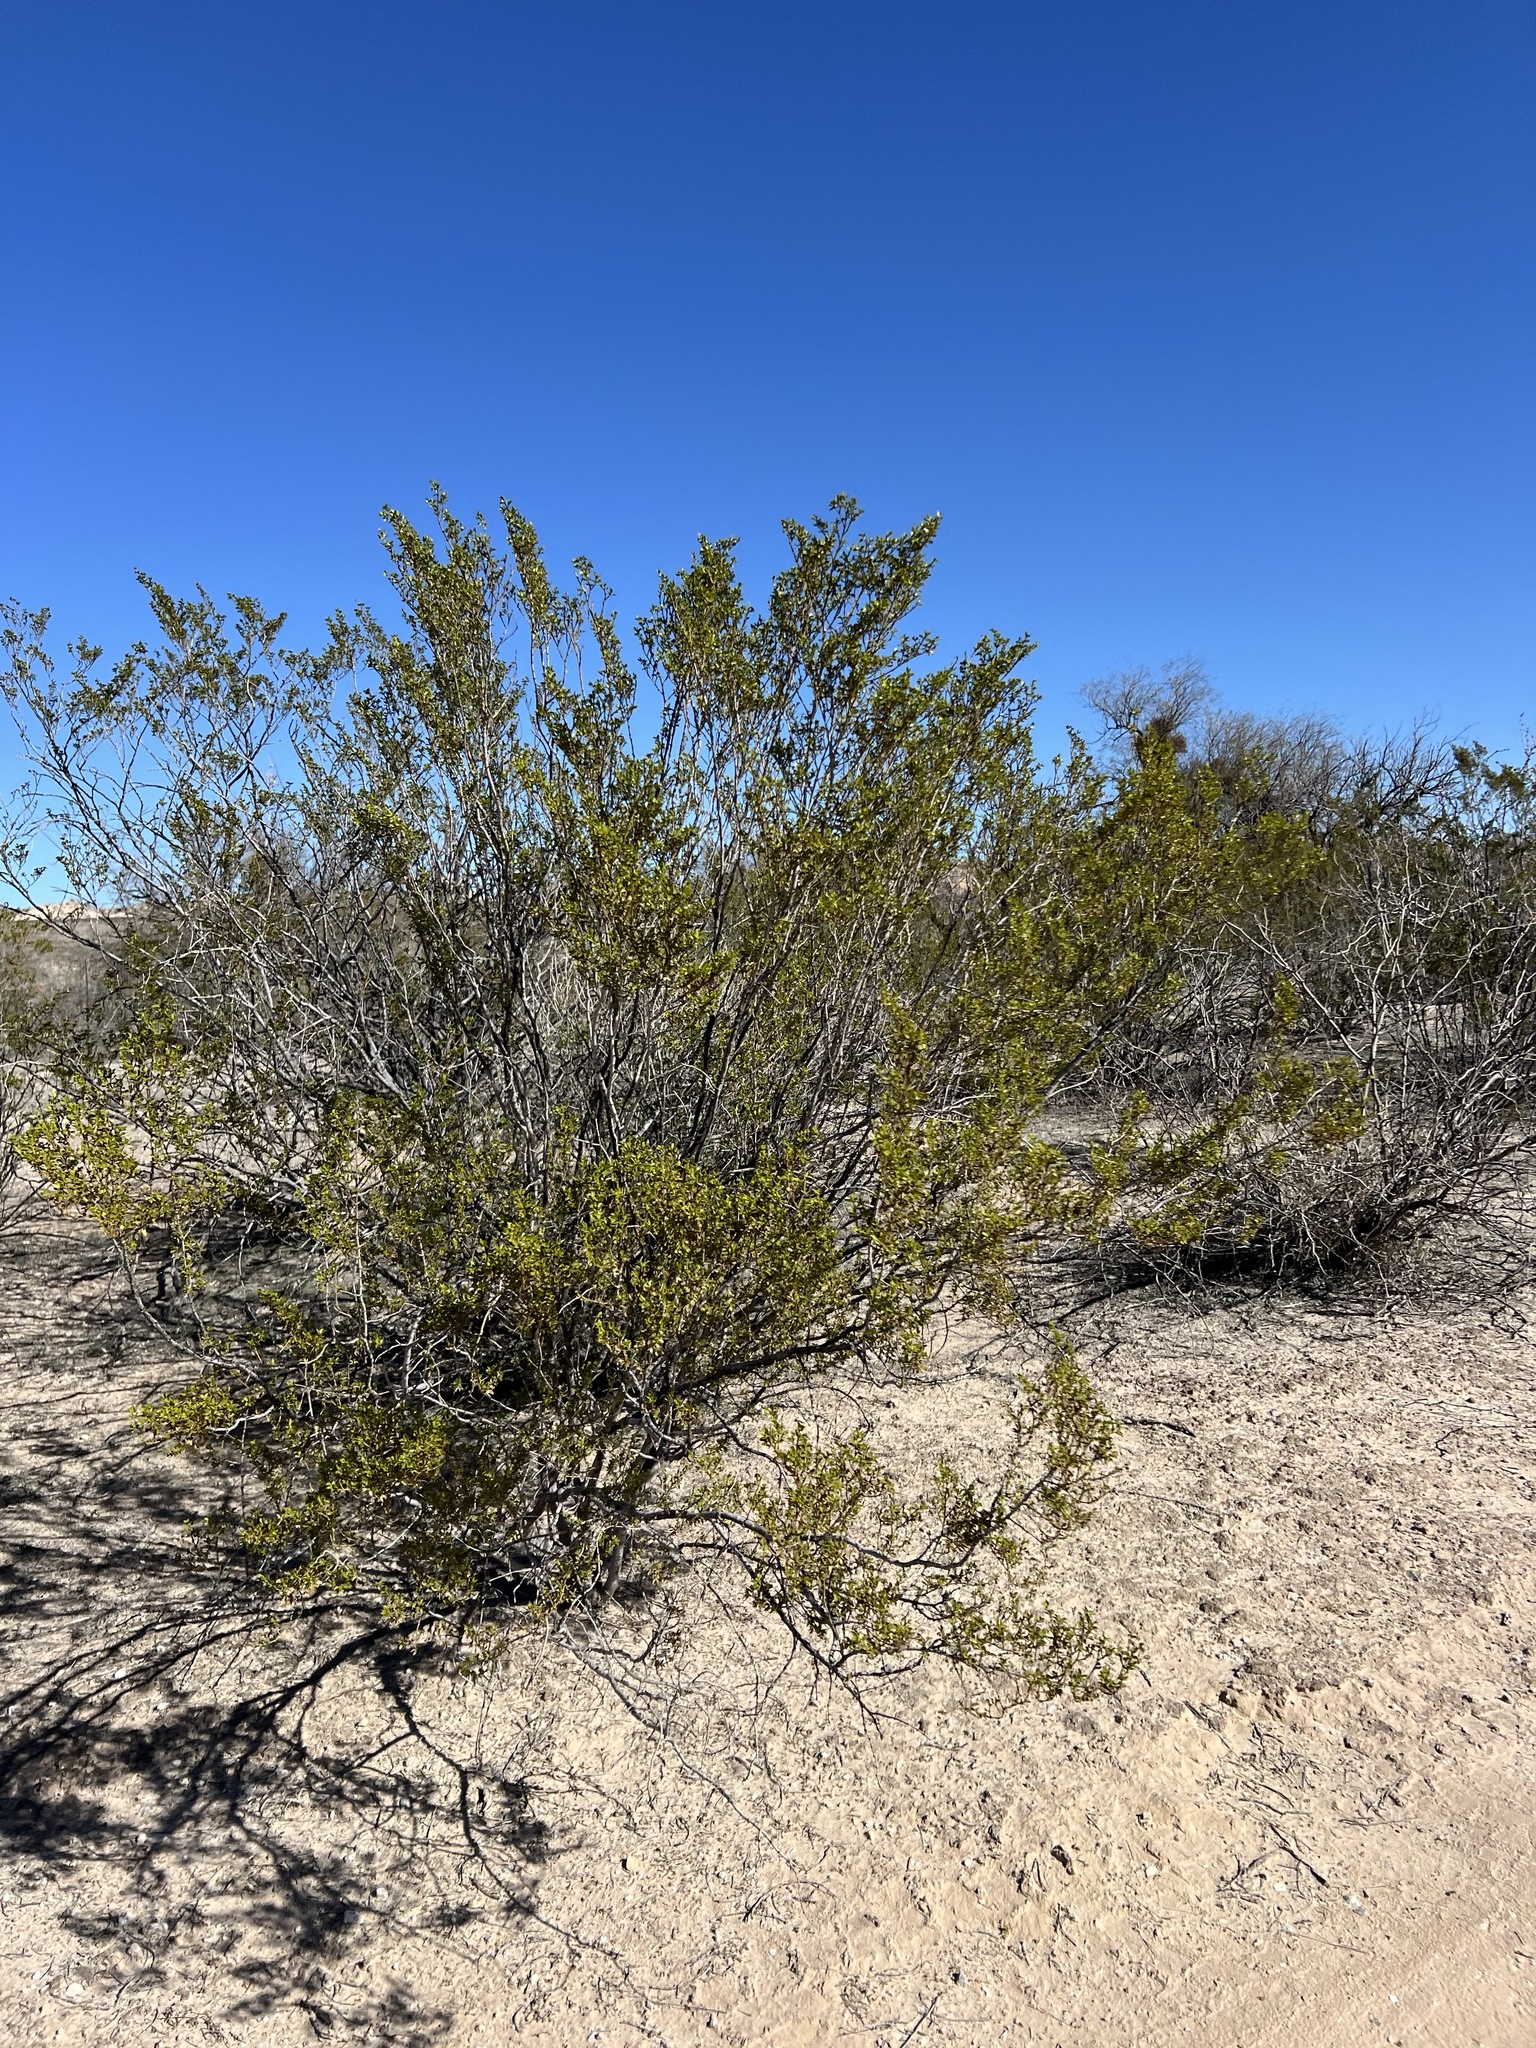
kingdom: Plantae
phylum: Tracheophyta
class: Magnoliopsida
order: Zygophyllales
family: Zygophyllaceae
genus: Larrea
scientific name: Larrea tridentata
